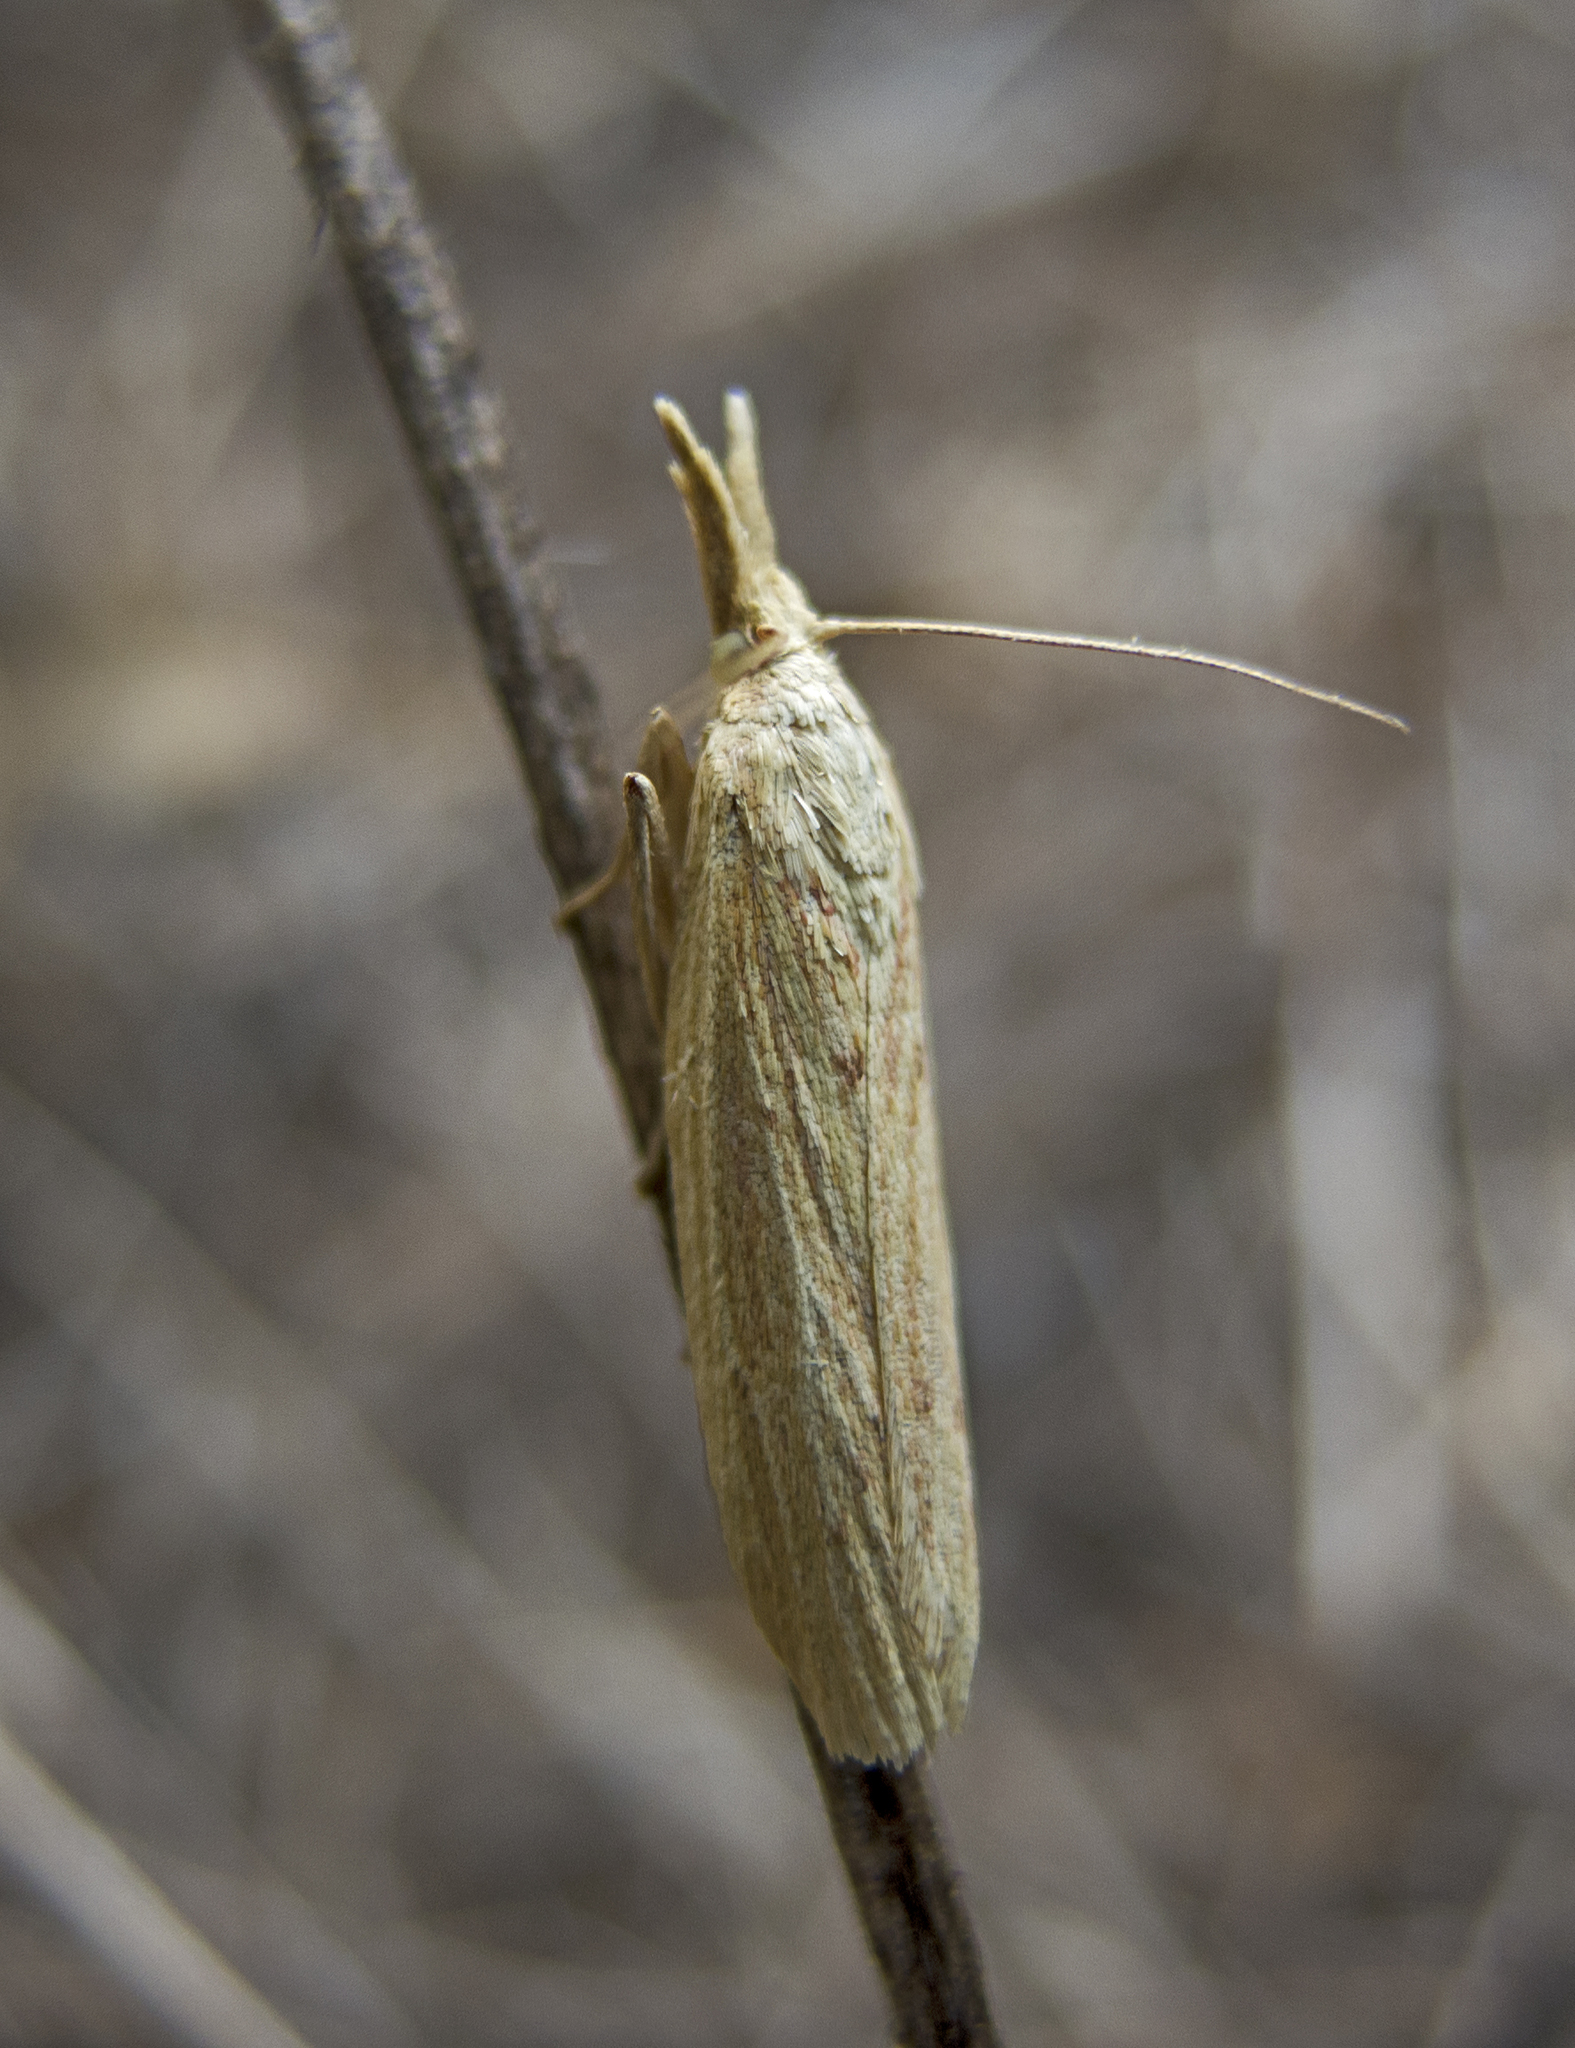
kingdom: Animalia
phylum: Arthropoda
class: Insecta
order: Lepidoptera
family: Pyralidae
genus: Ematheudes
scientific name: Ematheudes punctellus
